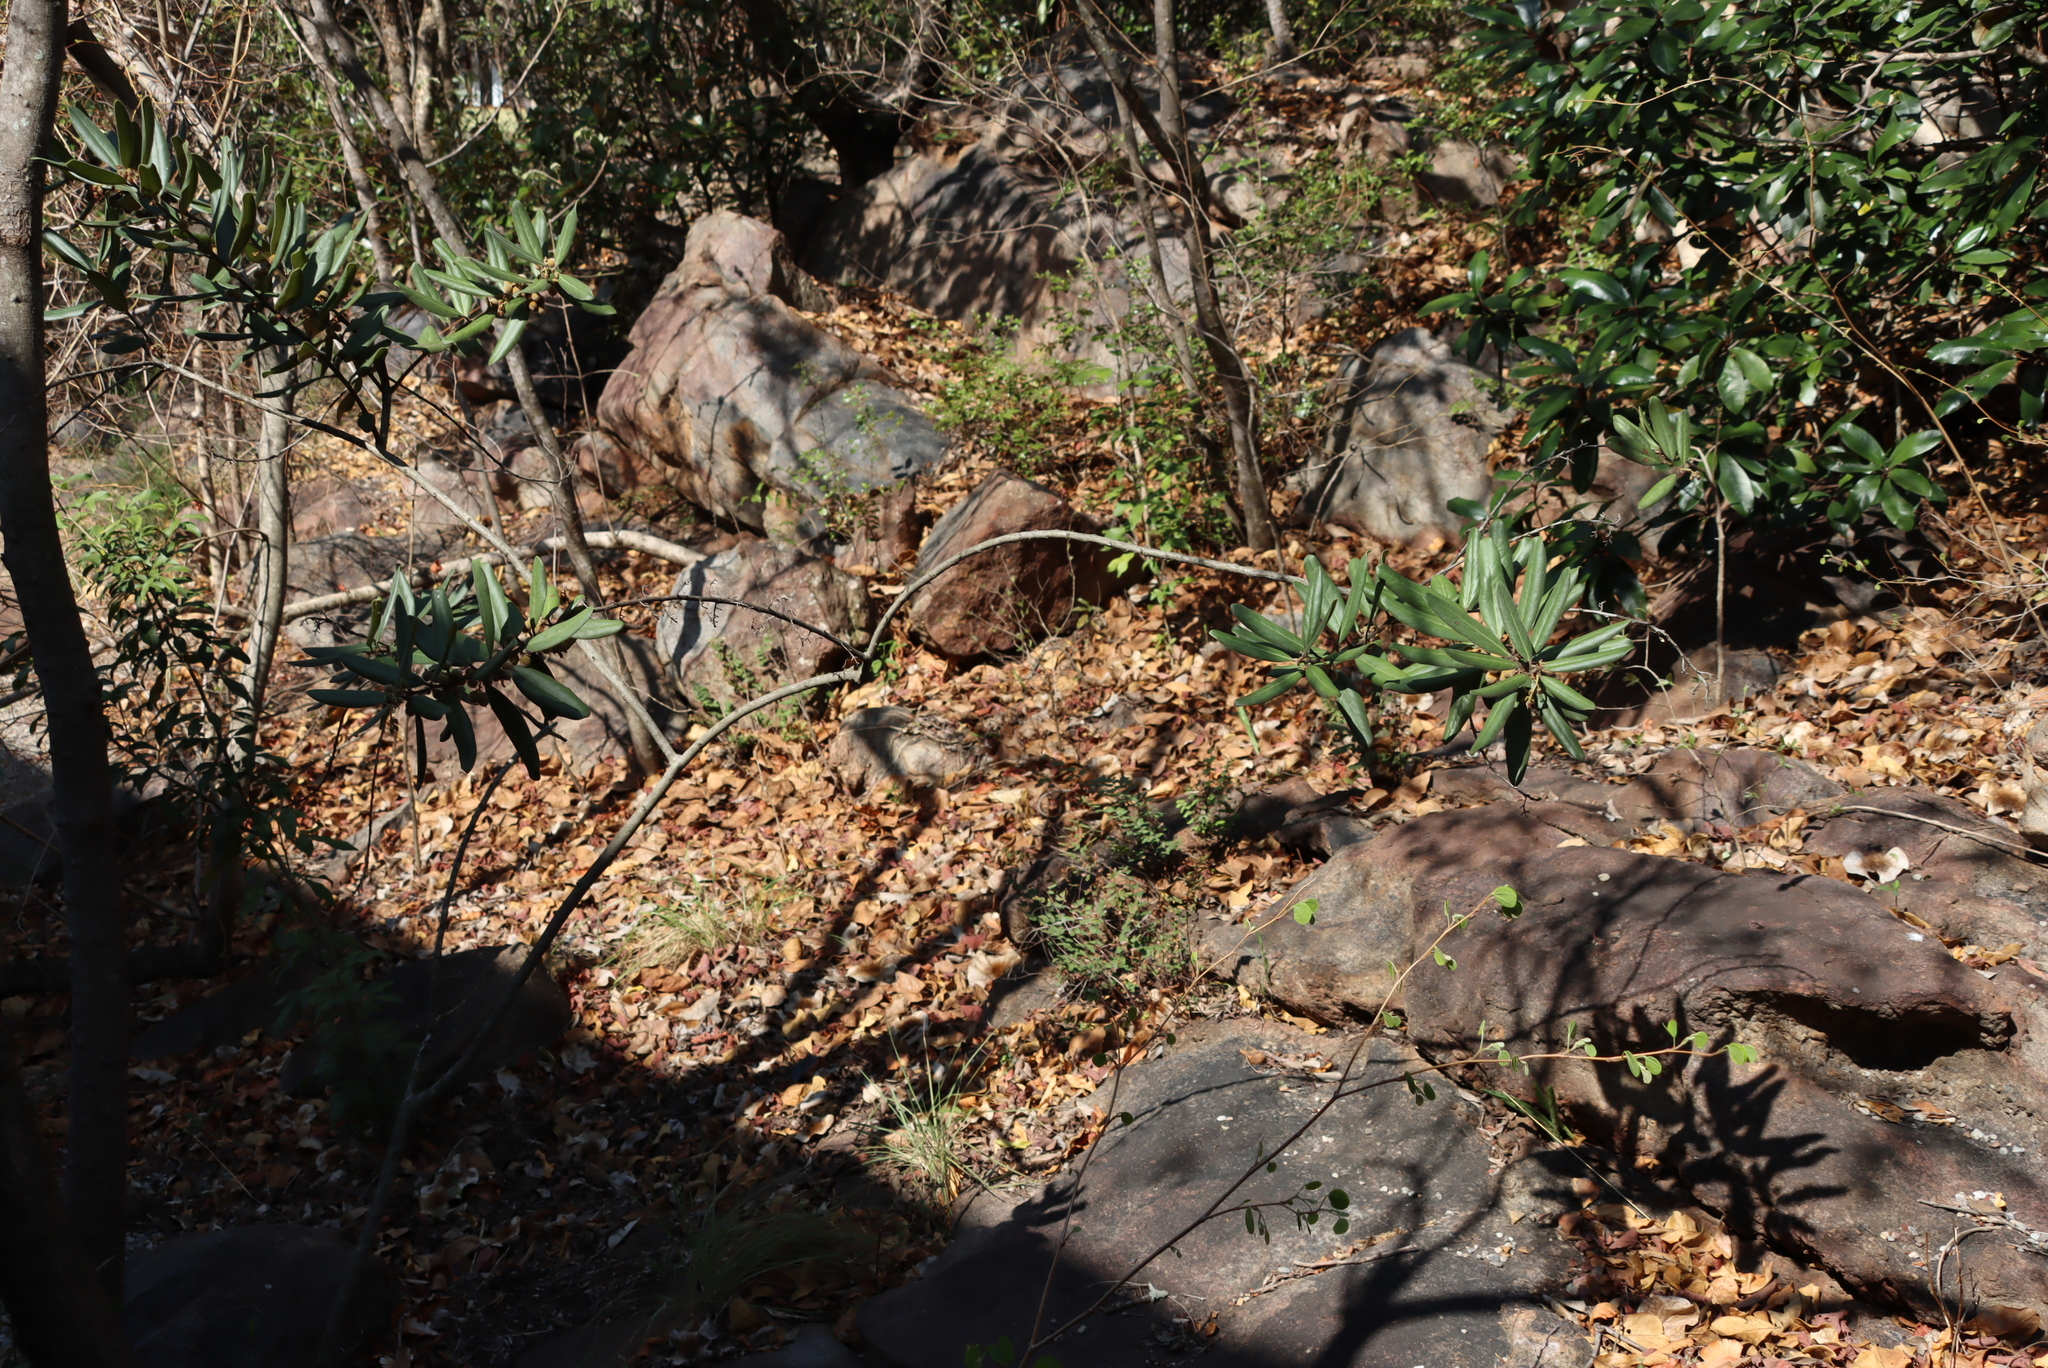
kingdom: Plantae
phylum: Tracheophyta
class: Magnoliopsida
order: Ericales
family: Ebenaceae
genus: Euclea
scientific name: Euclea natalensis
